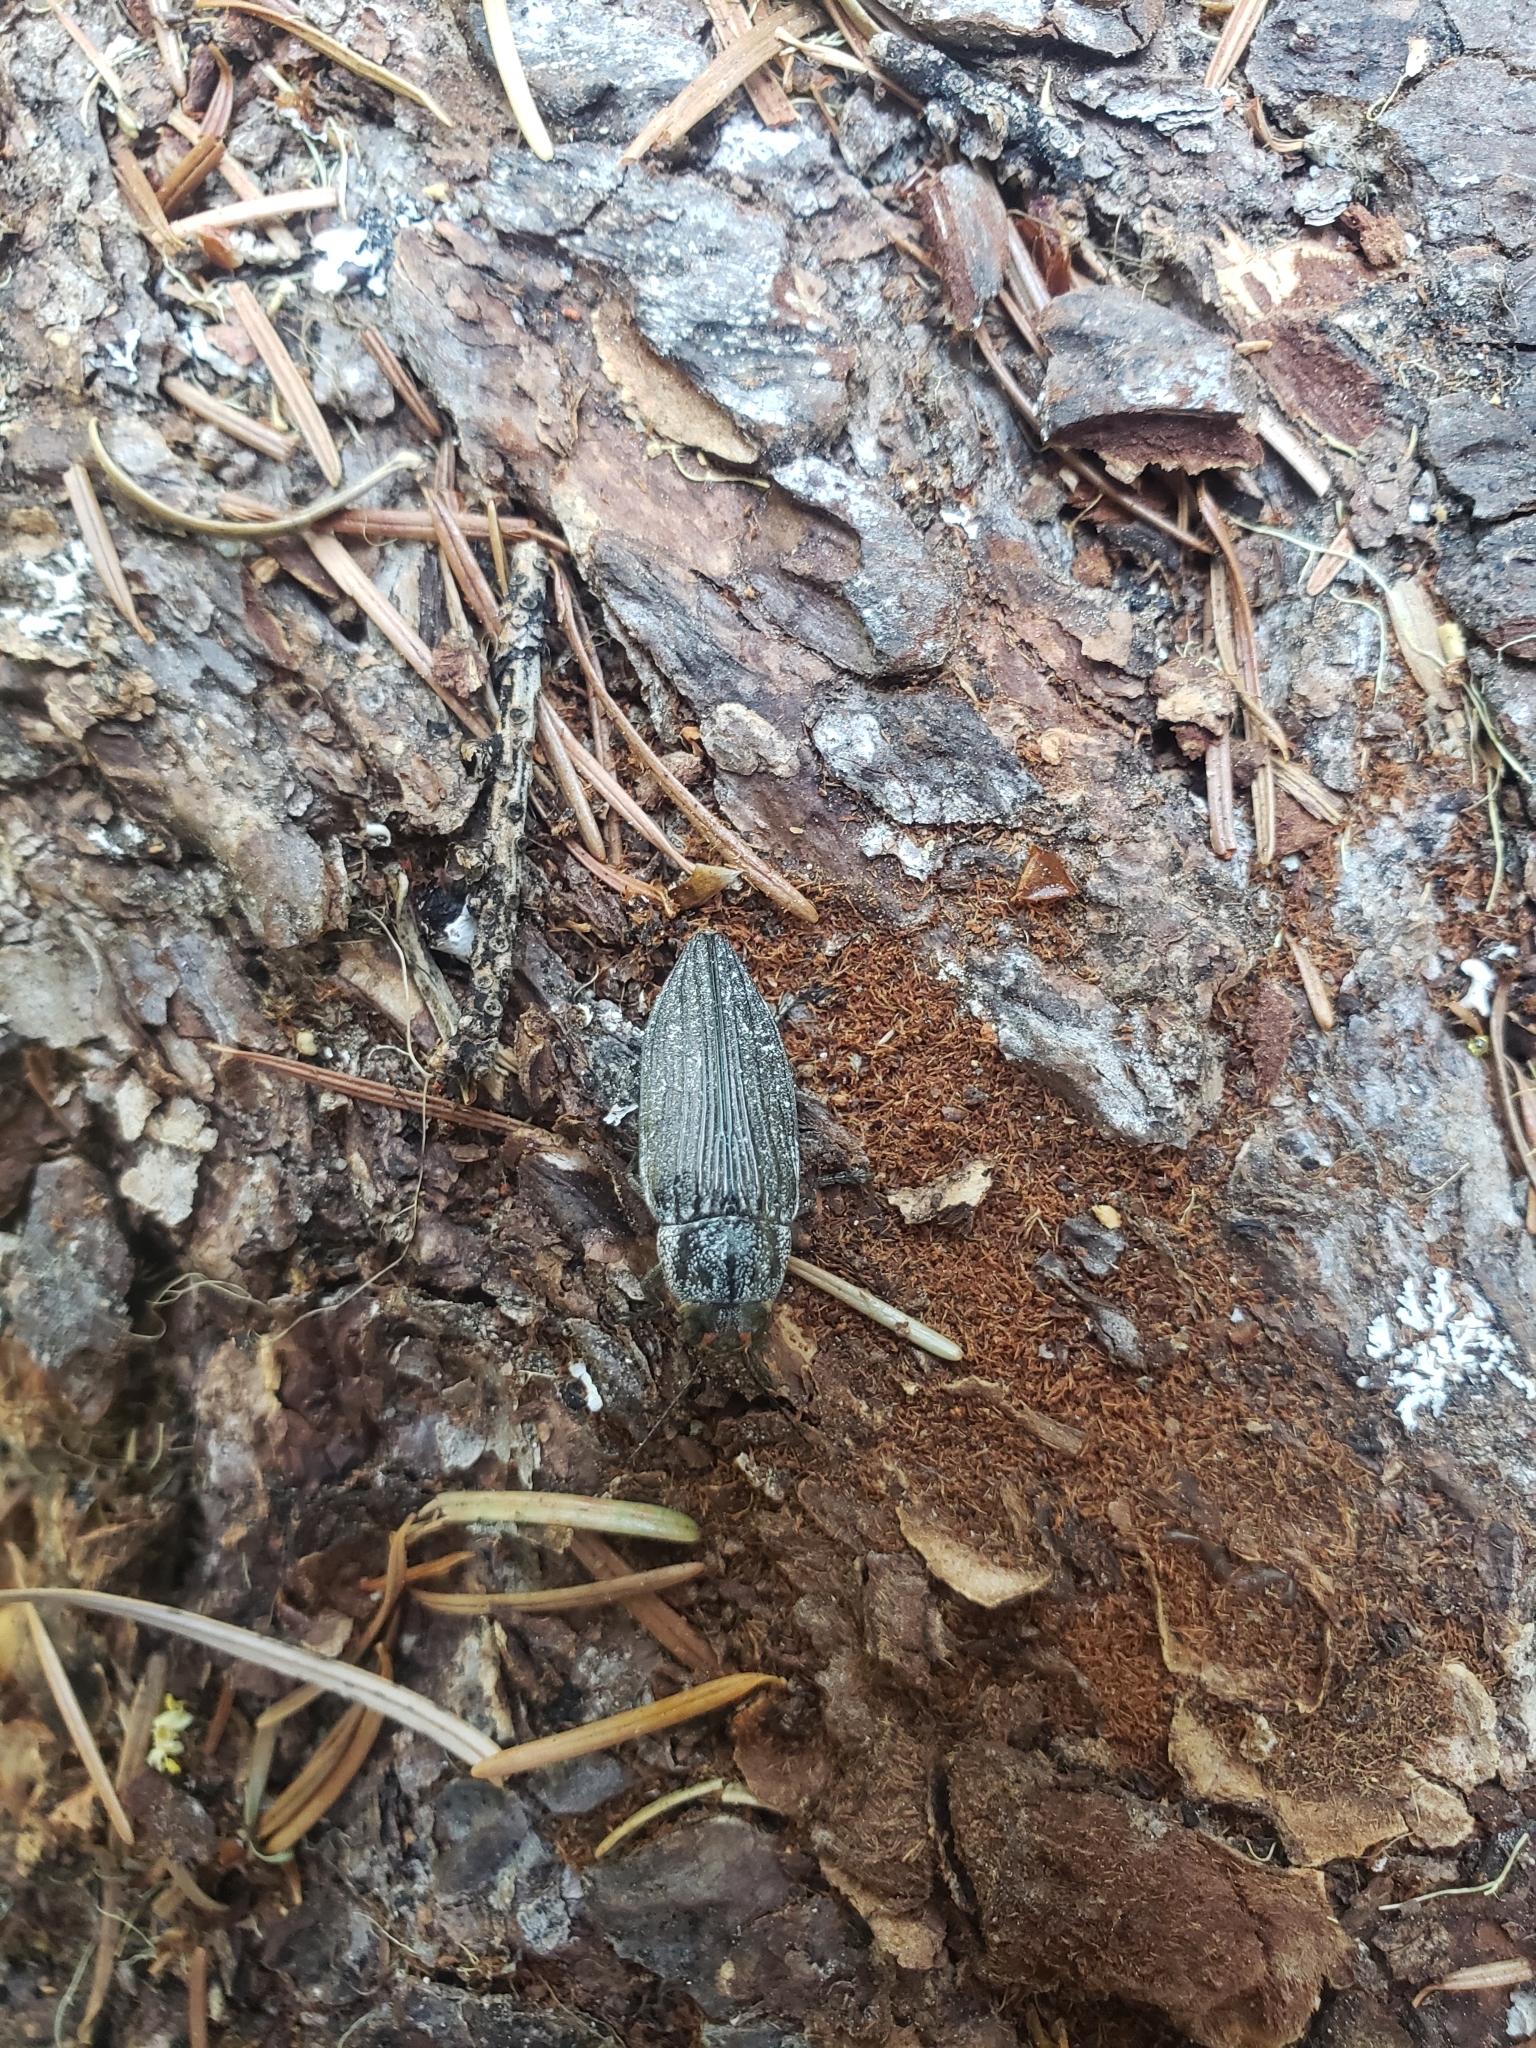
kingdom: Animalia
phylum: Arthropoda
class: Insecta
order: Coleoptera
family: Buprestidae
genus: Buprestis
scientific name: Buprestis lyrata
